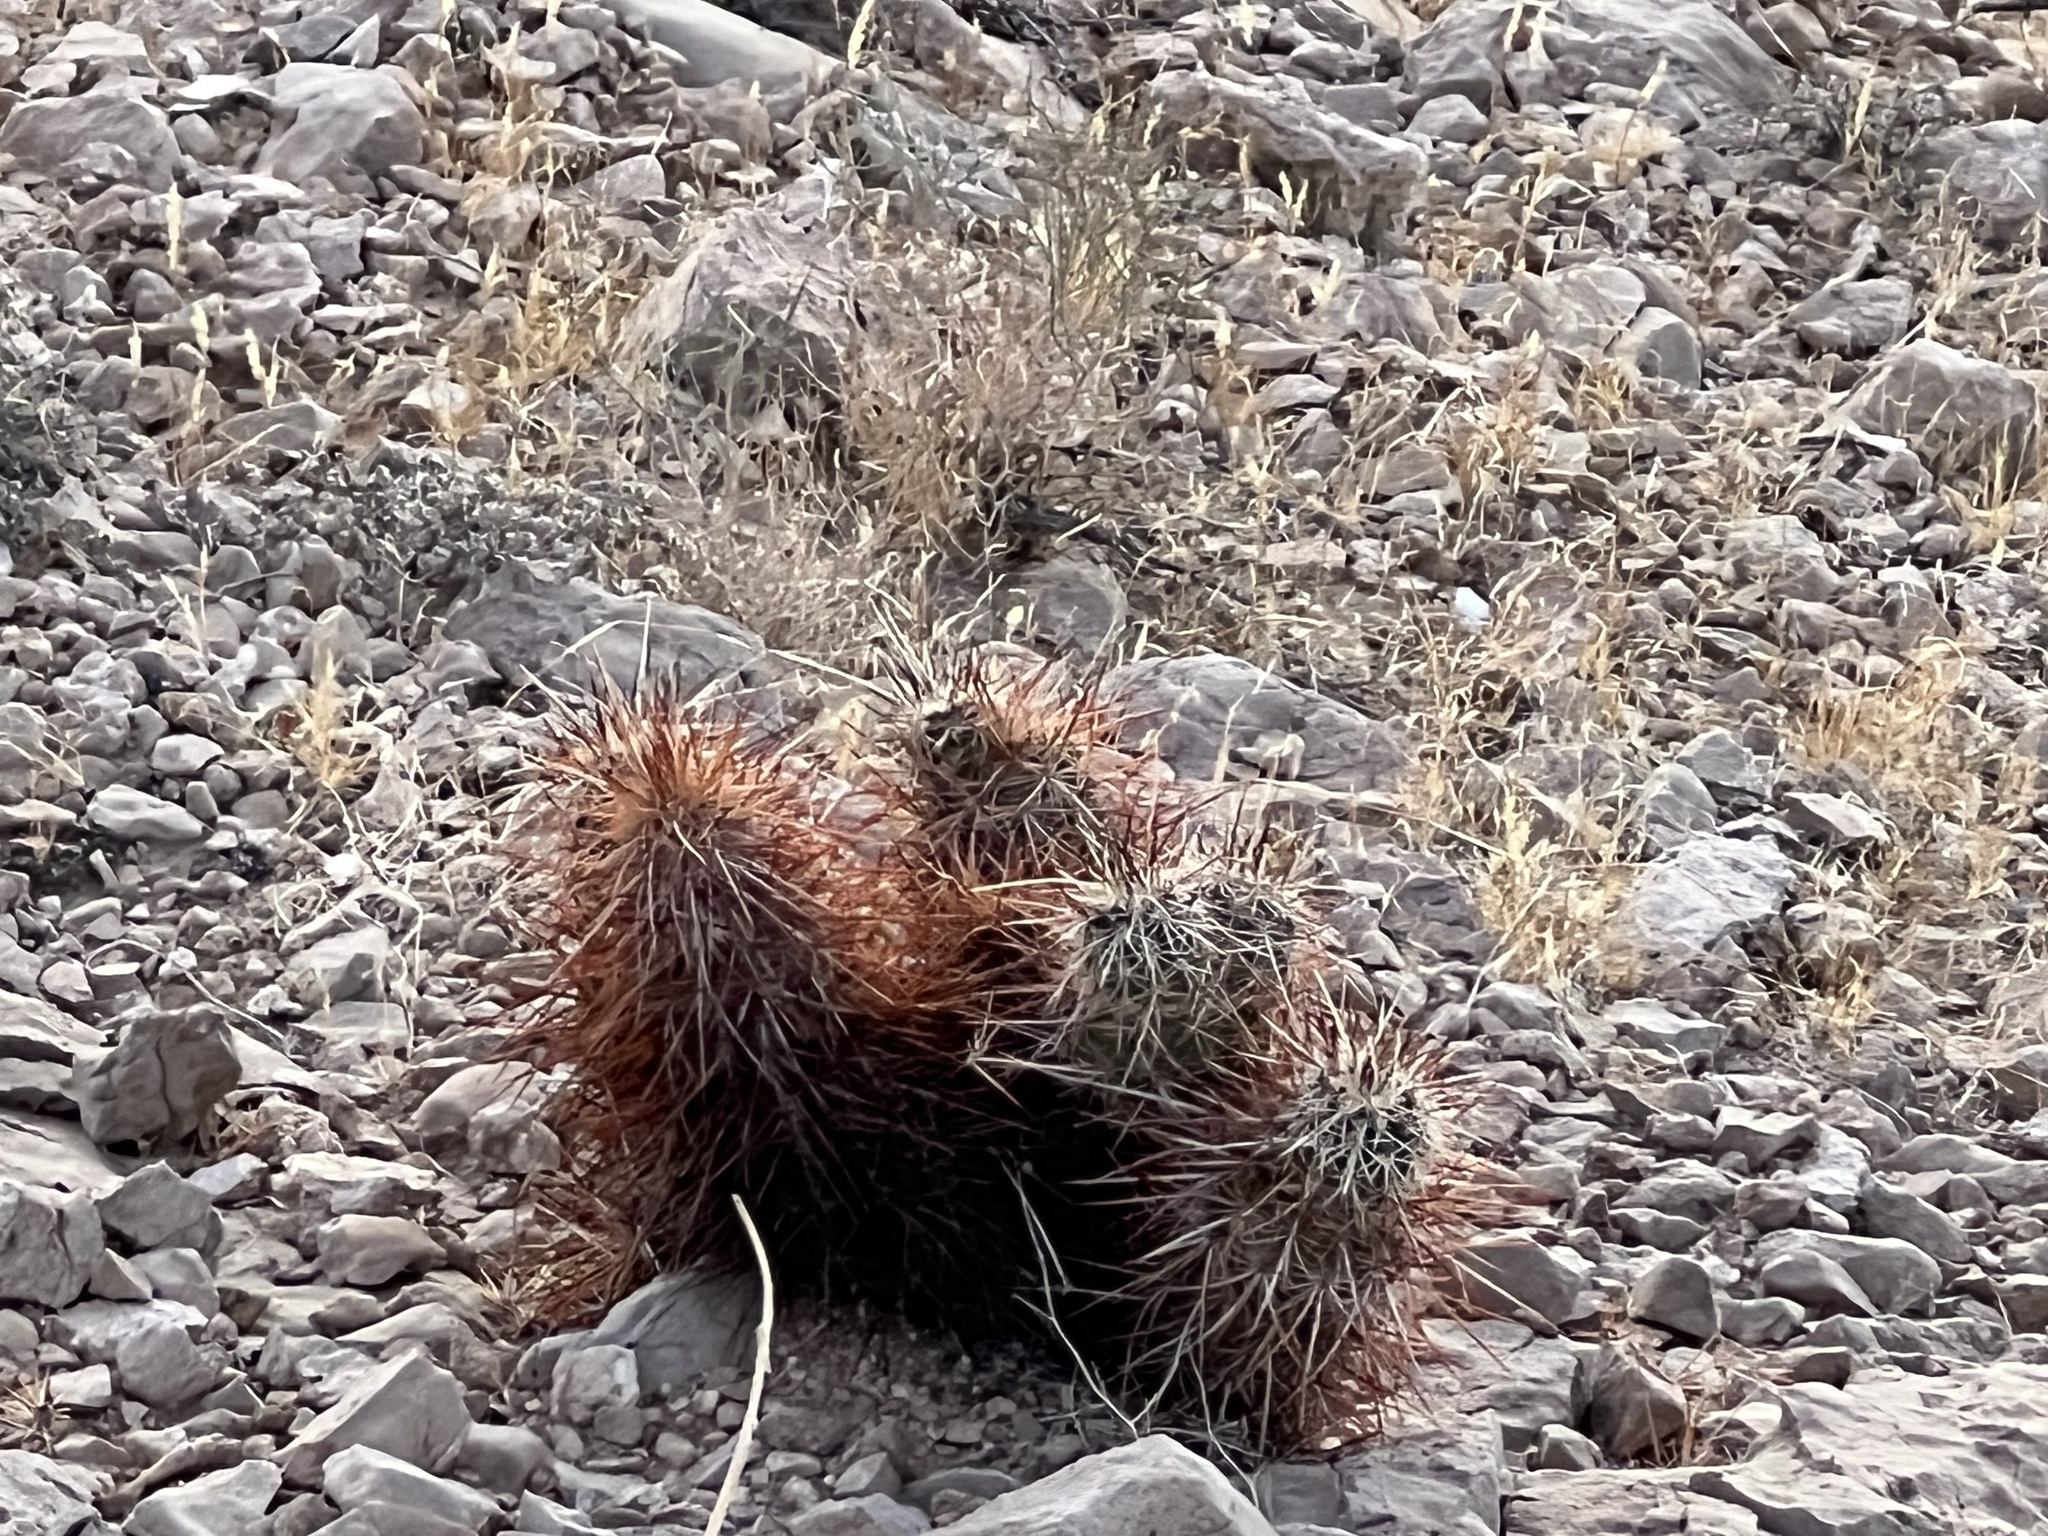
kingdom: Plantae
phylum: Tracheophyta
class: Magnoliopsida
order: Caryophyllales
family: Cactaceae
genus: Echinocereus
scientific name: Echinocereus engelmannii
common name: Engelmann's hedgehog cactus
